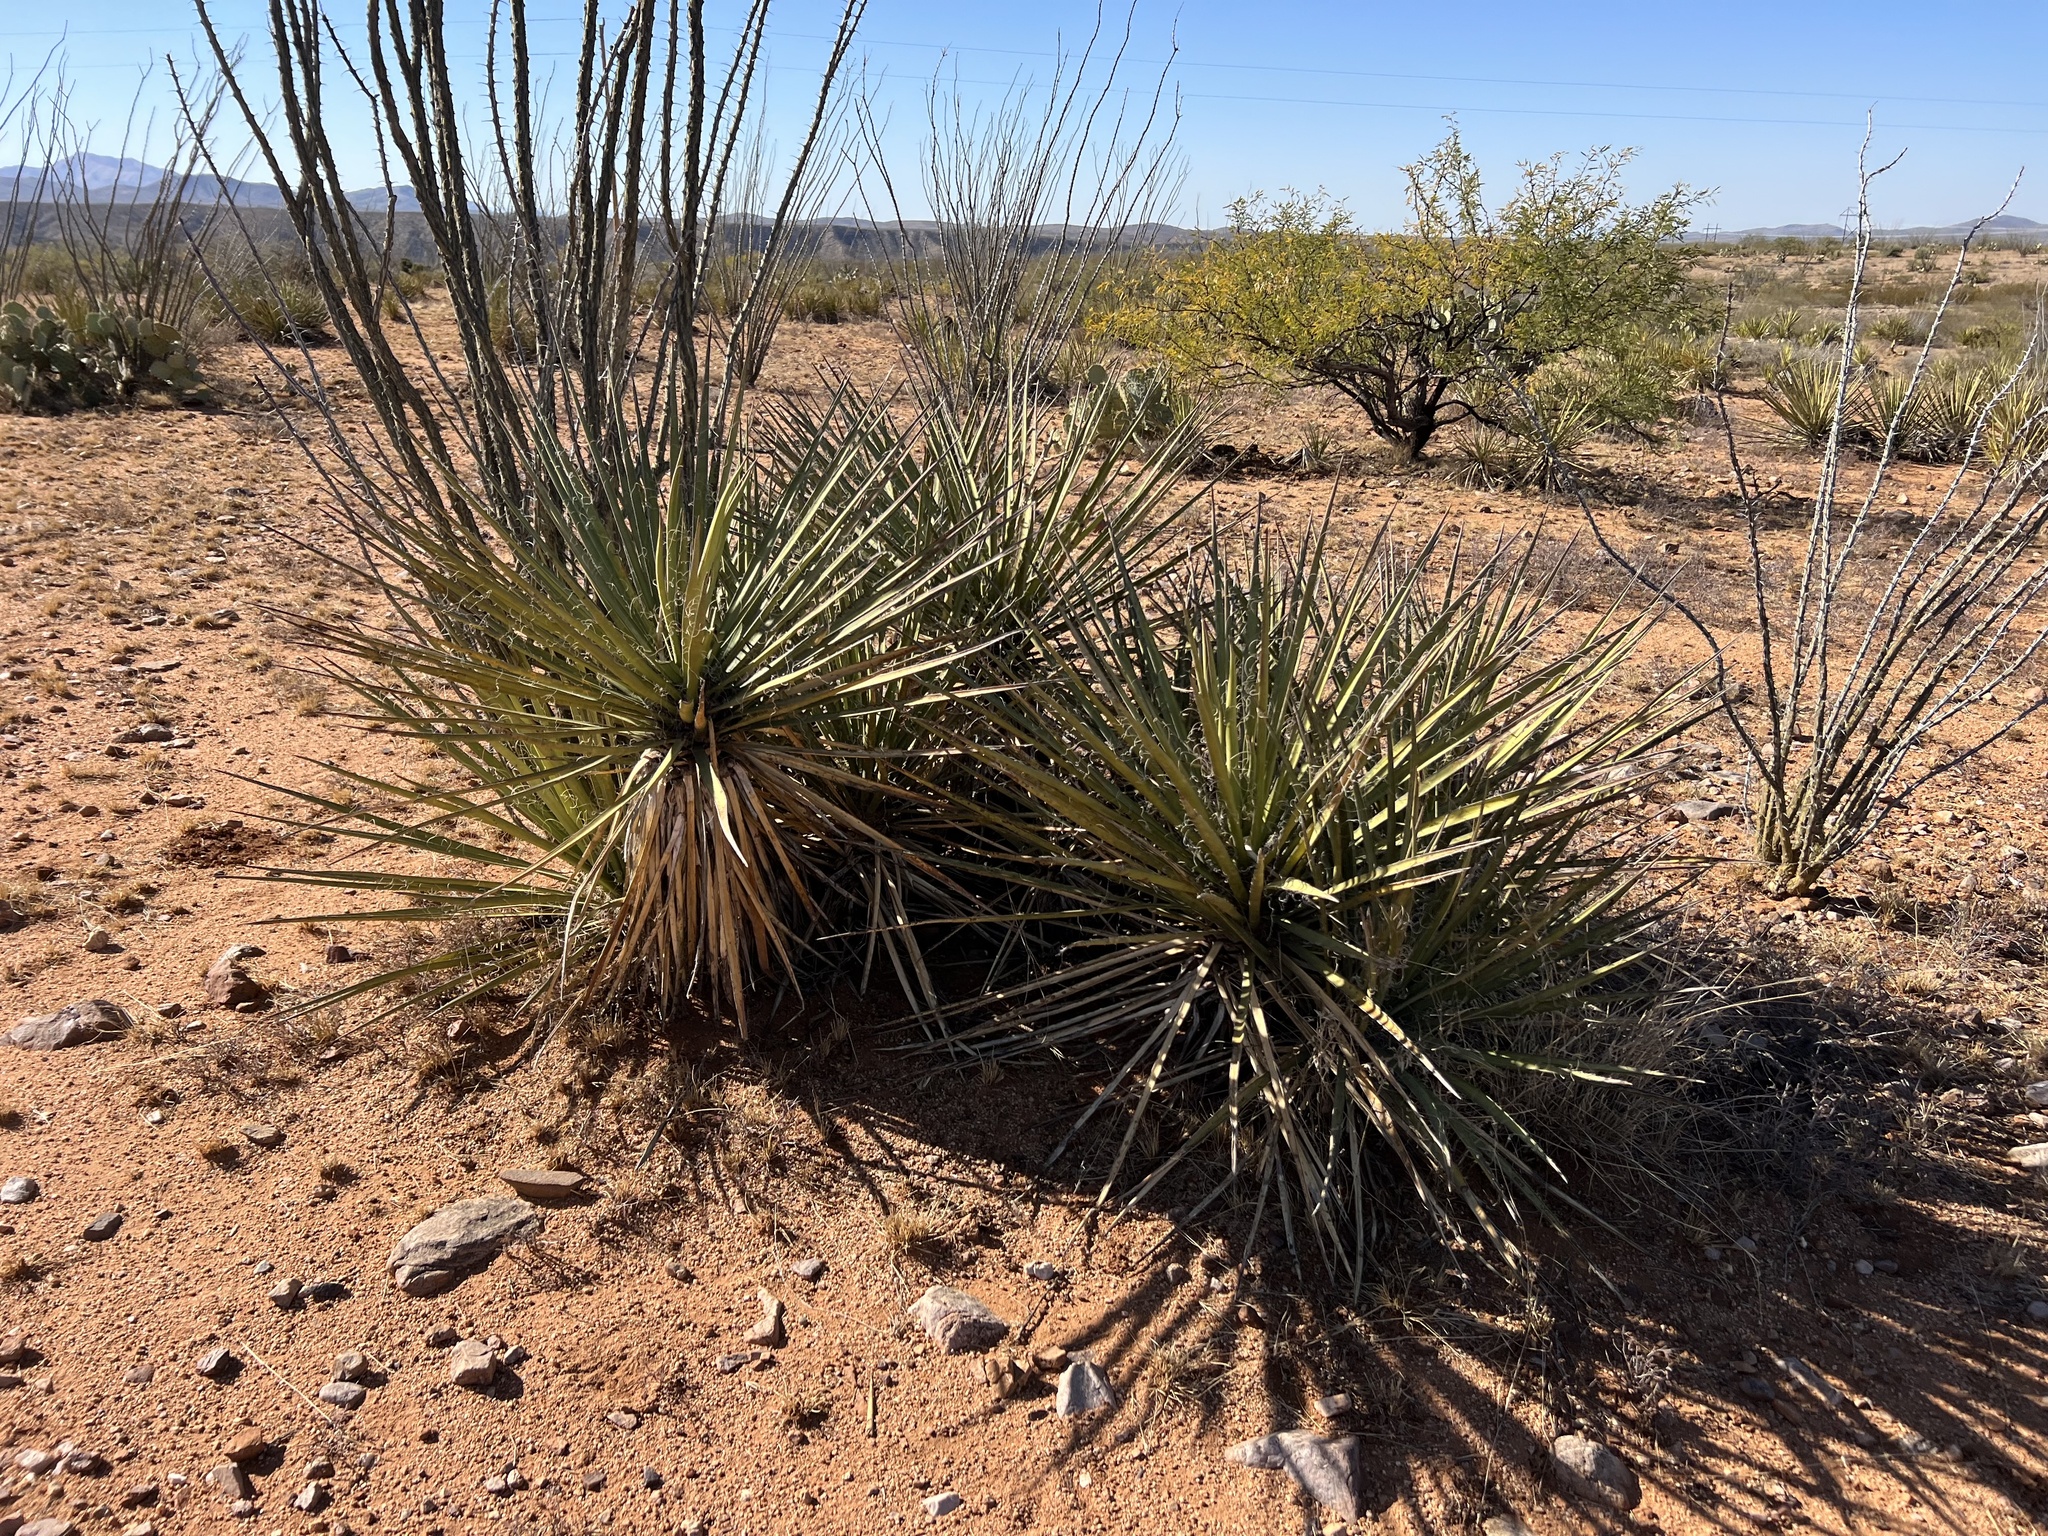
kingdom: Plantae
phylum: Tracheophyta
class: Liliopsida
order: Asparagales
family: Asparagaceae
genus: Yucca
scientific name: Yucca baccata
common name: Banana yucca
